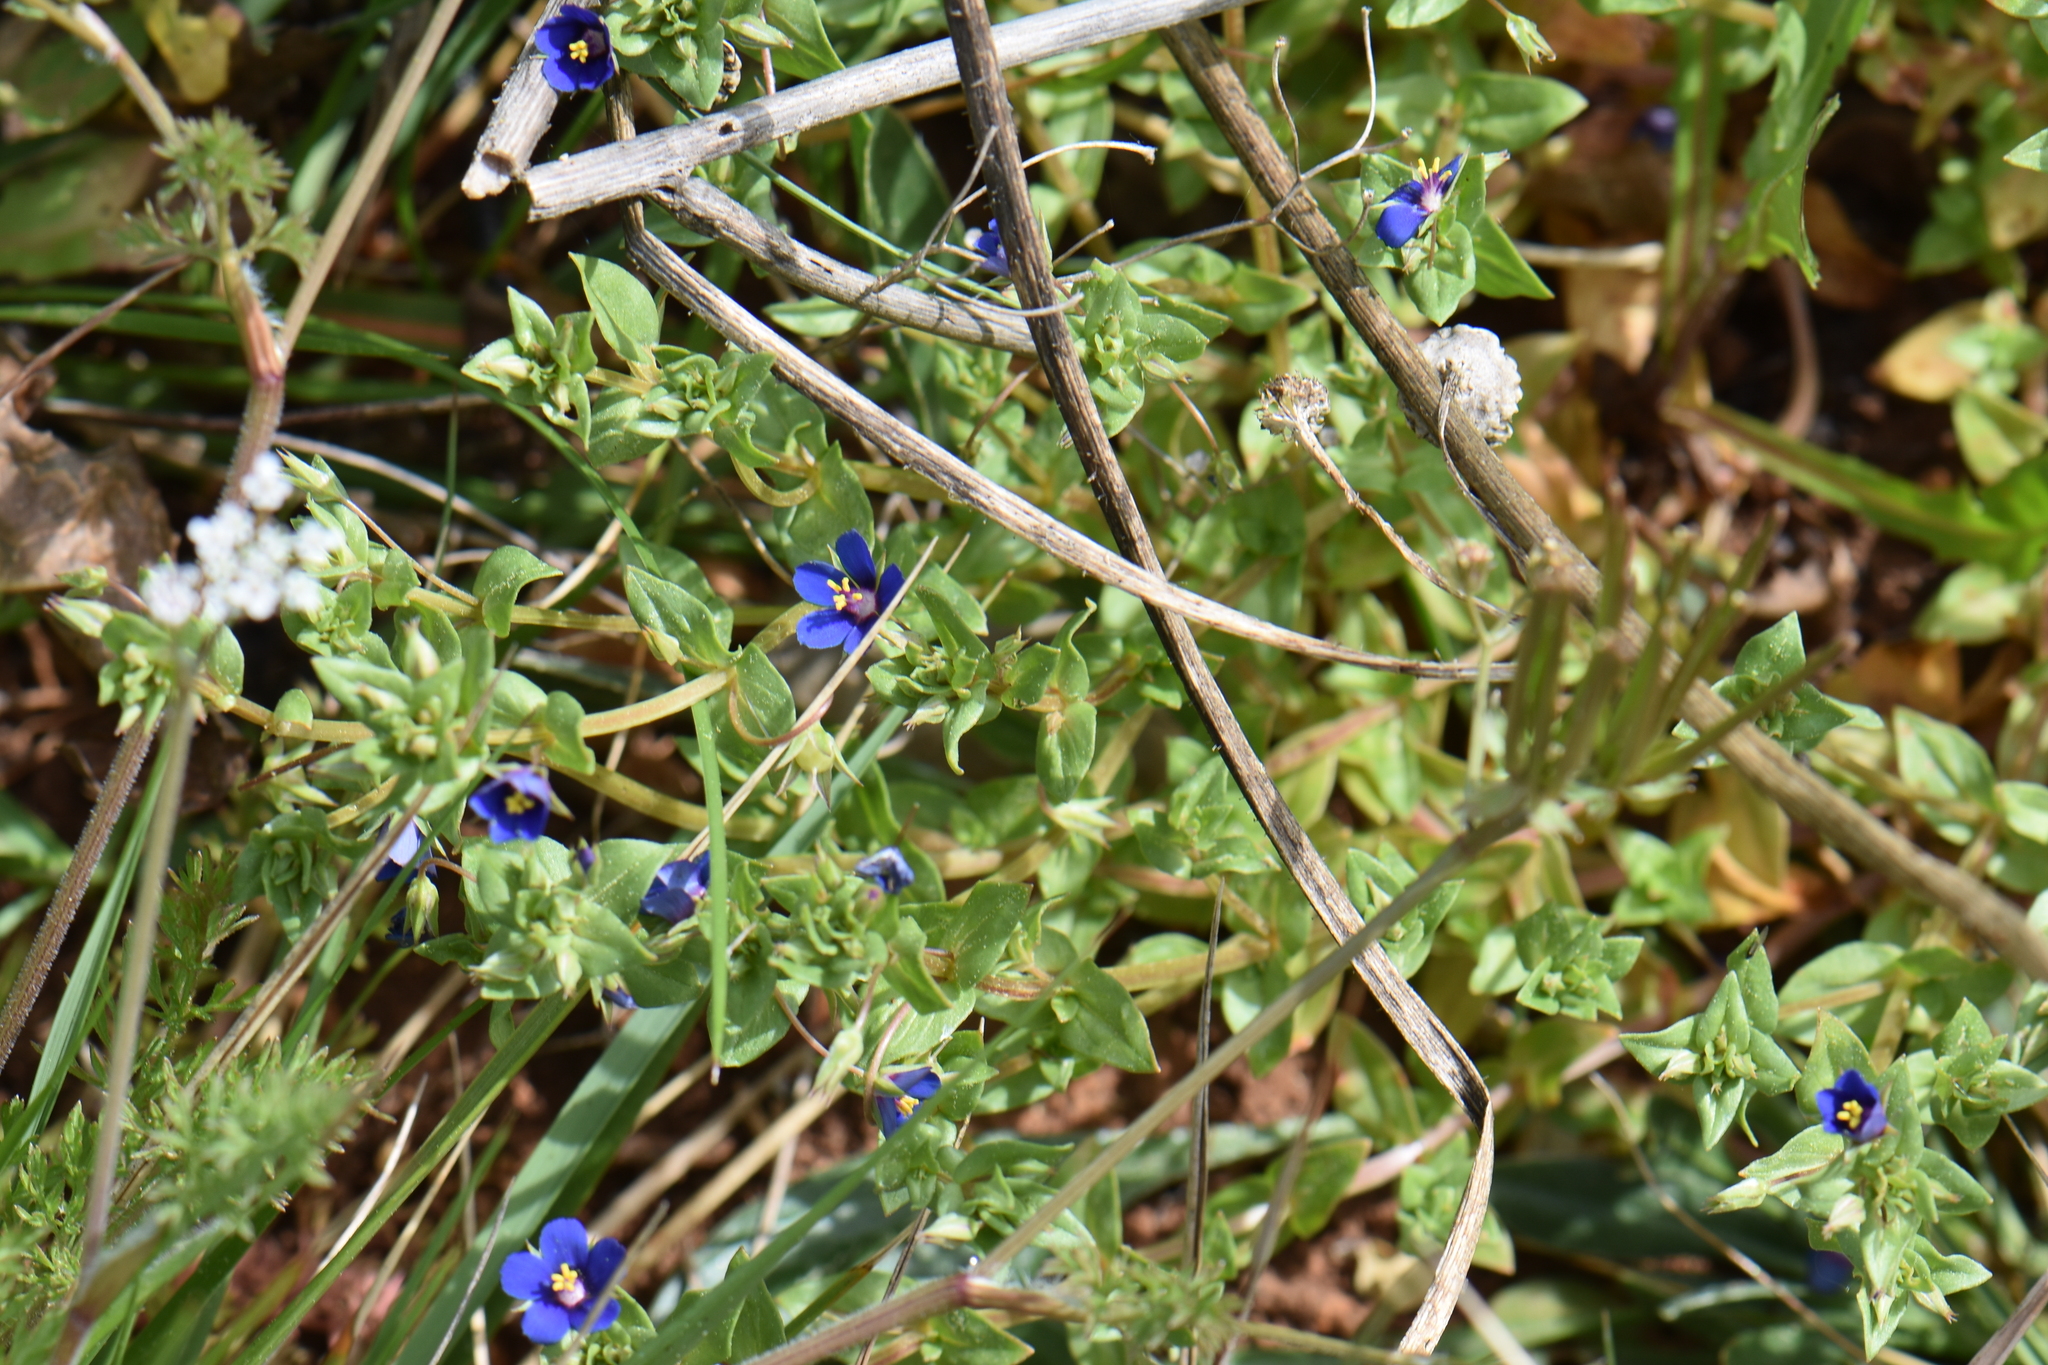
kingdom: Plantae
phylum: Tracheophyta
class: Magnoliopsida
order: Ericales
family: Primulaceae
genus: Lysimachia
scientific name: Lysimachia foemina
